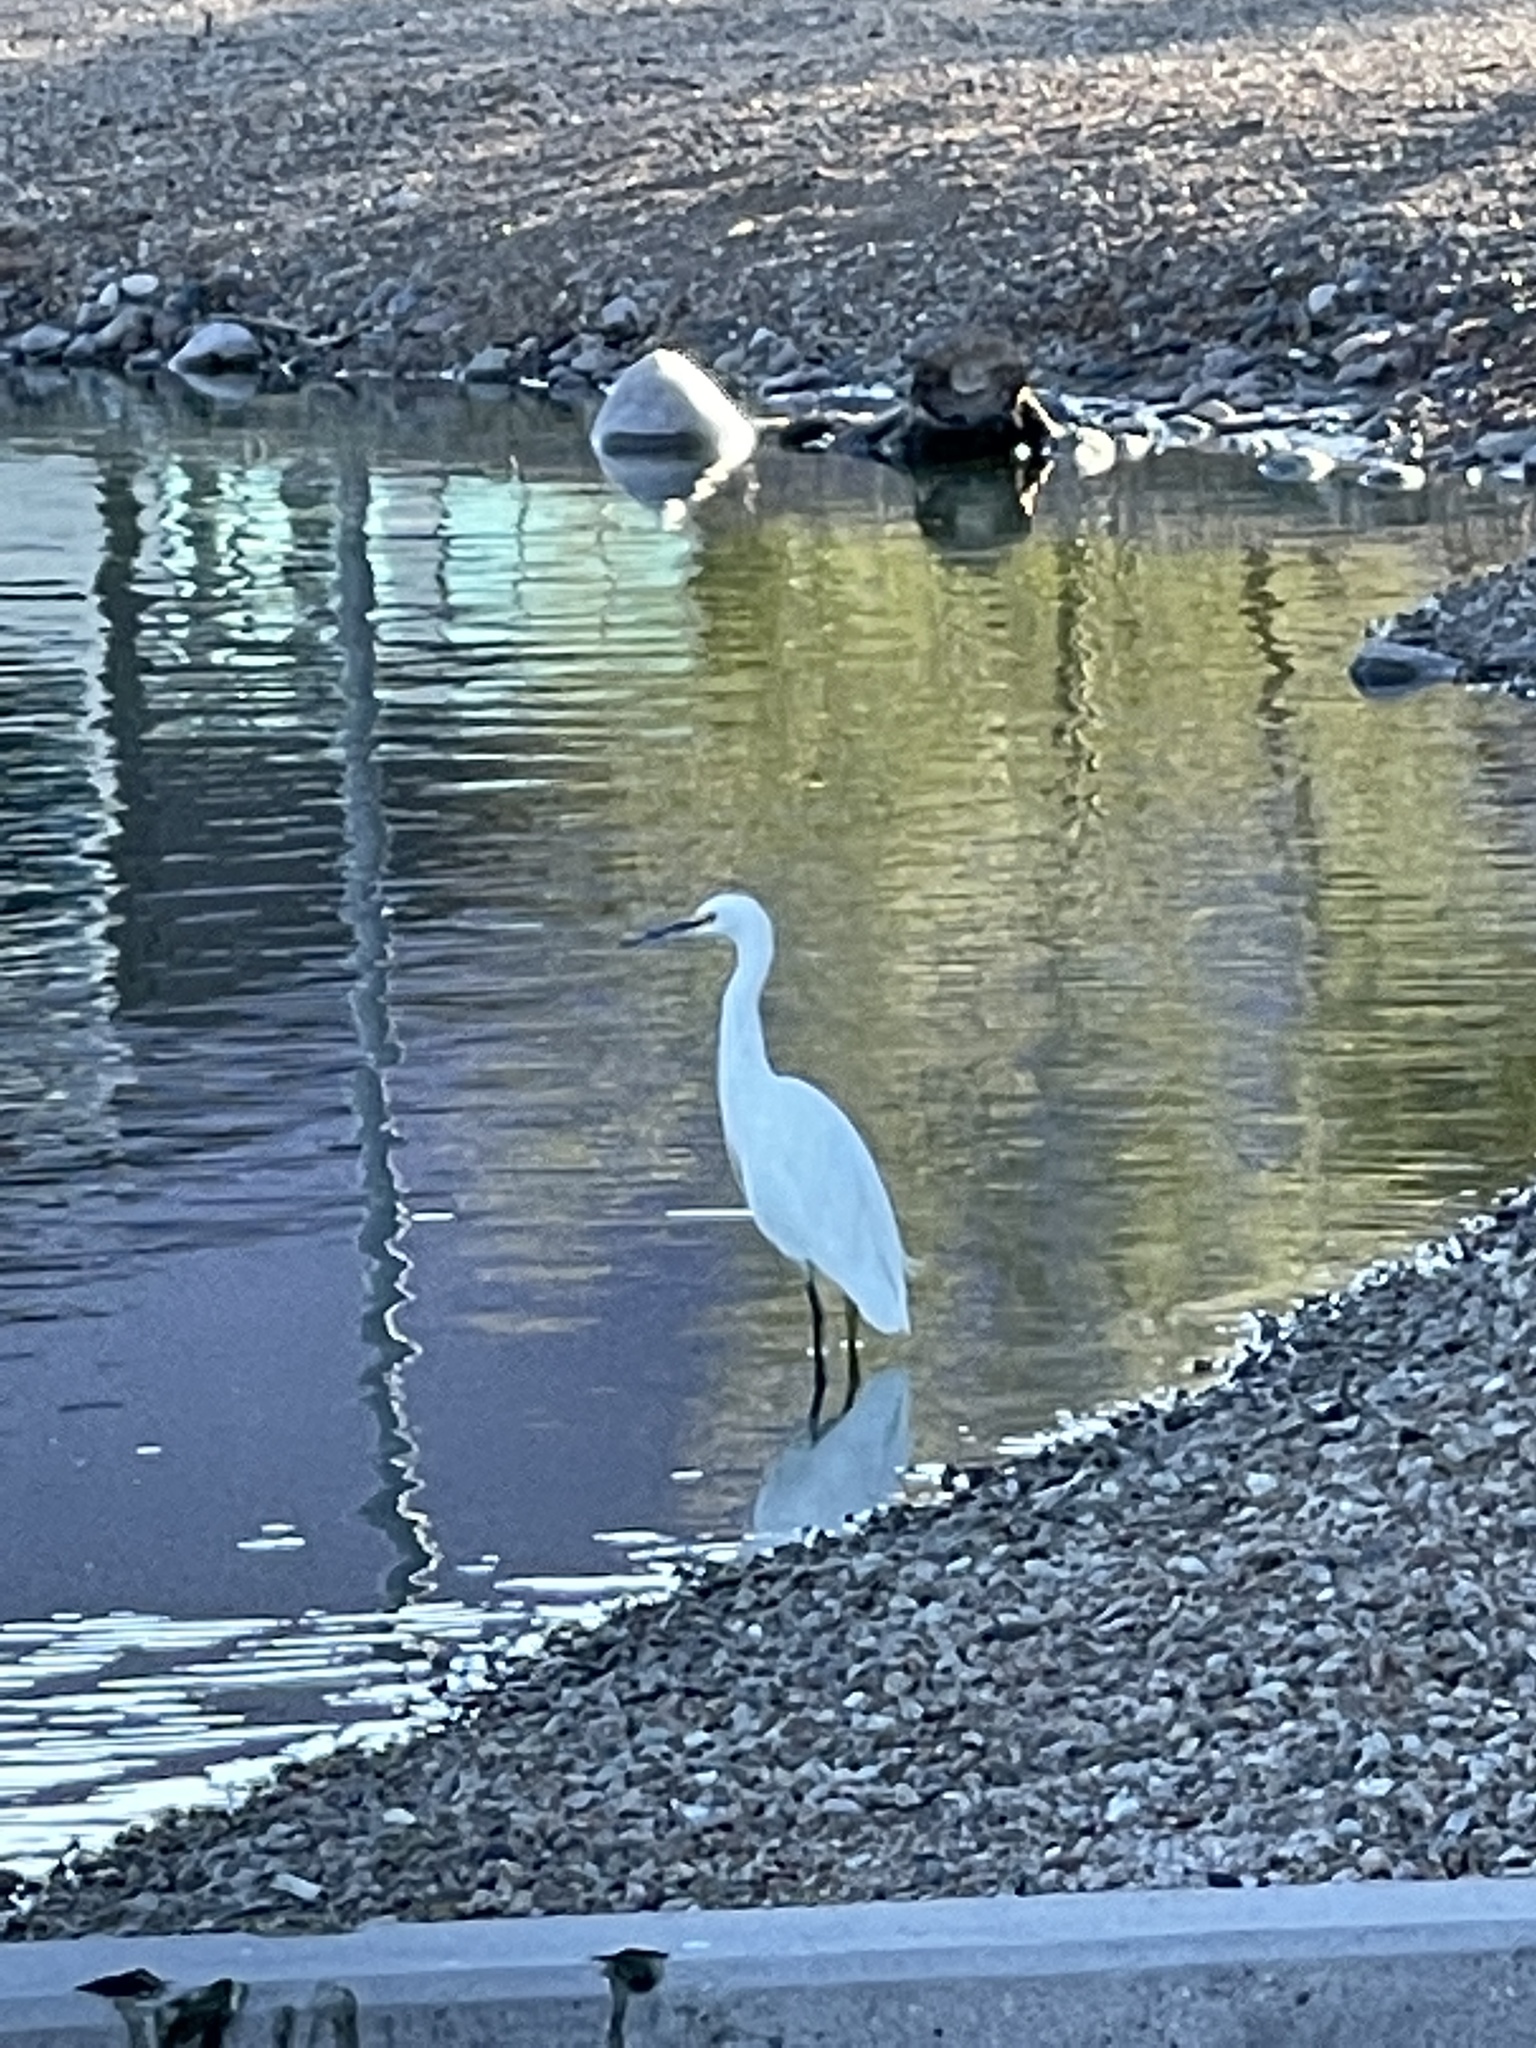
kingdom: Animalia
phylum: Chordata
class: Aves
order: Pelecaniformes
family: Ardeidae
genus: Egretta
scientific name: Egretta thula
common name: Snowy egret
